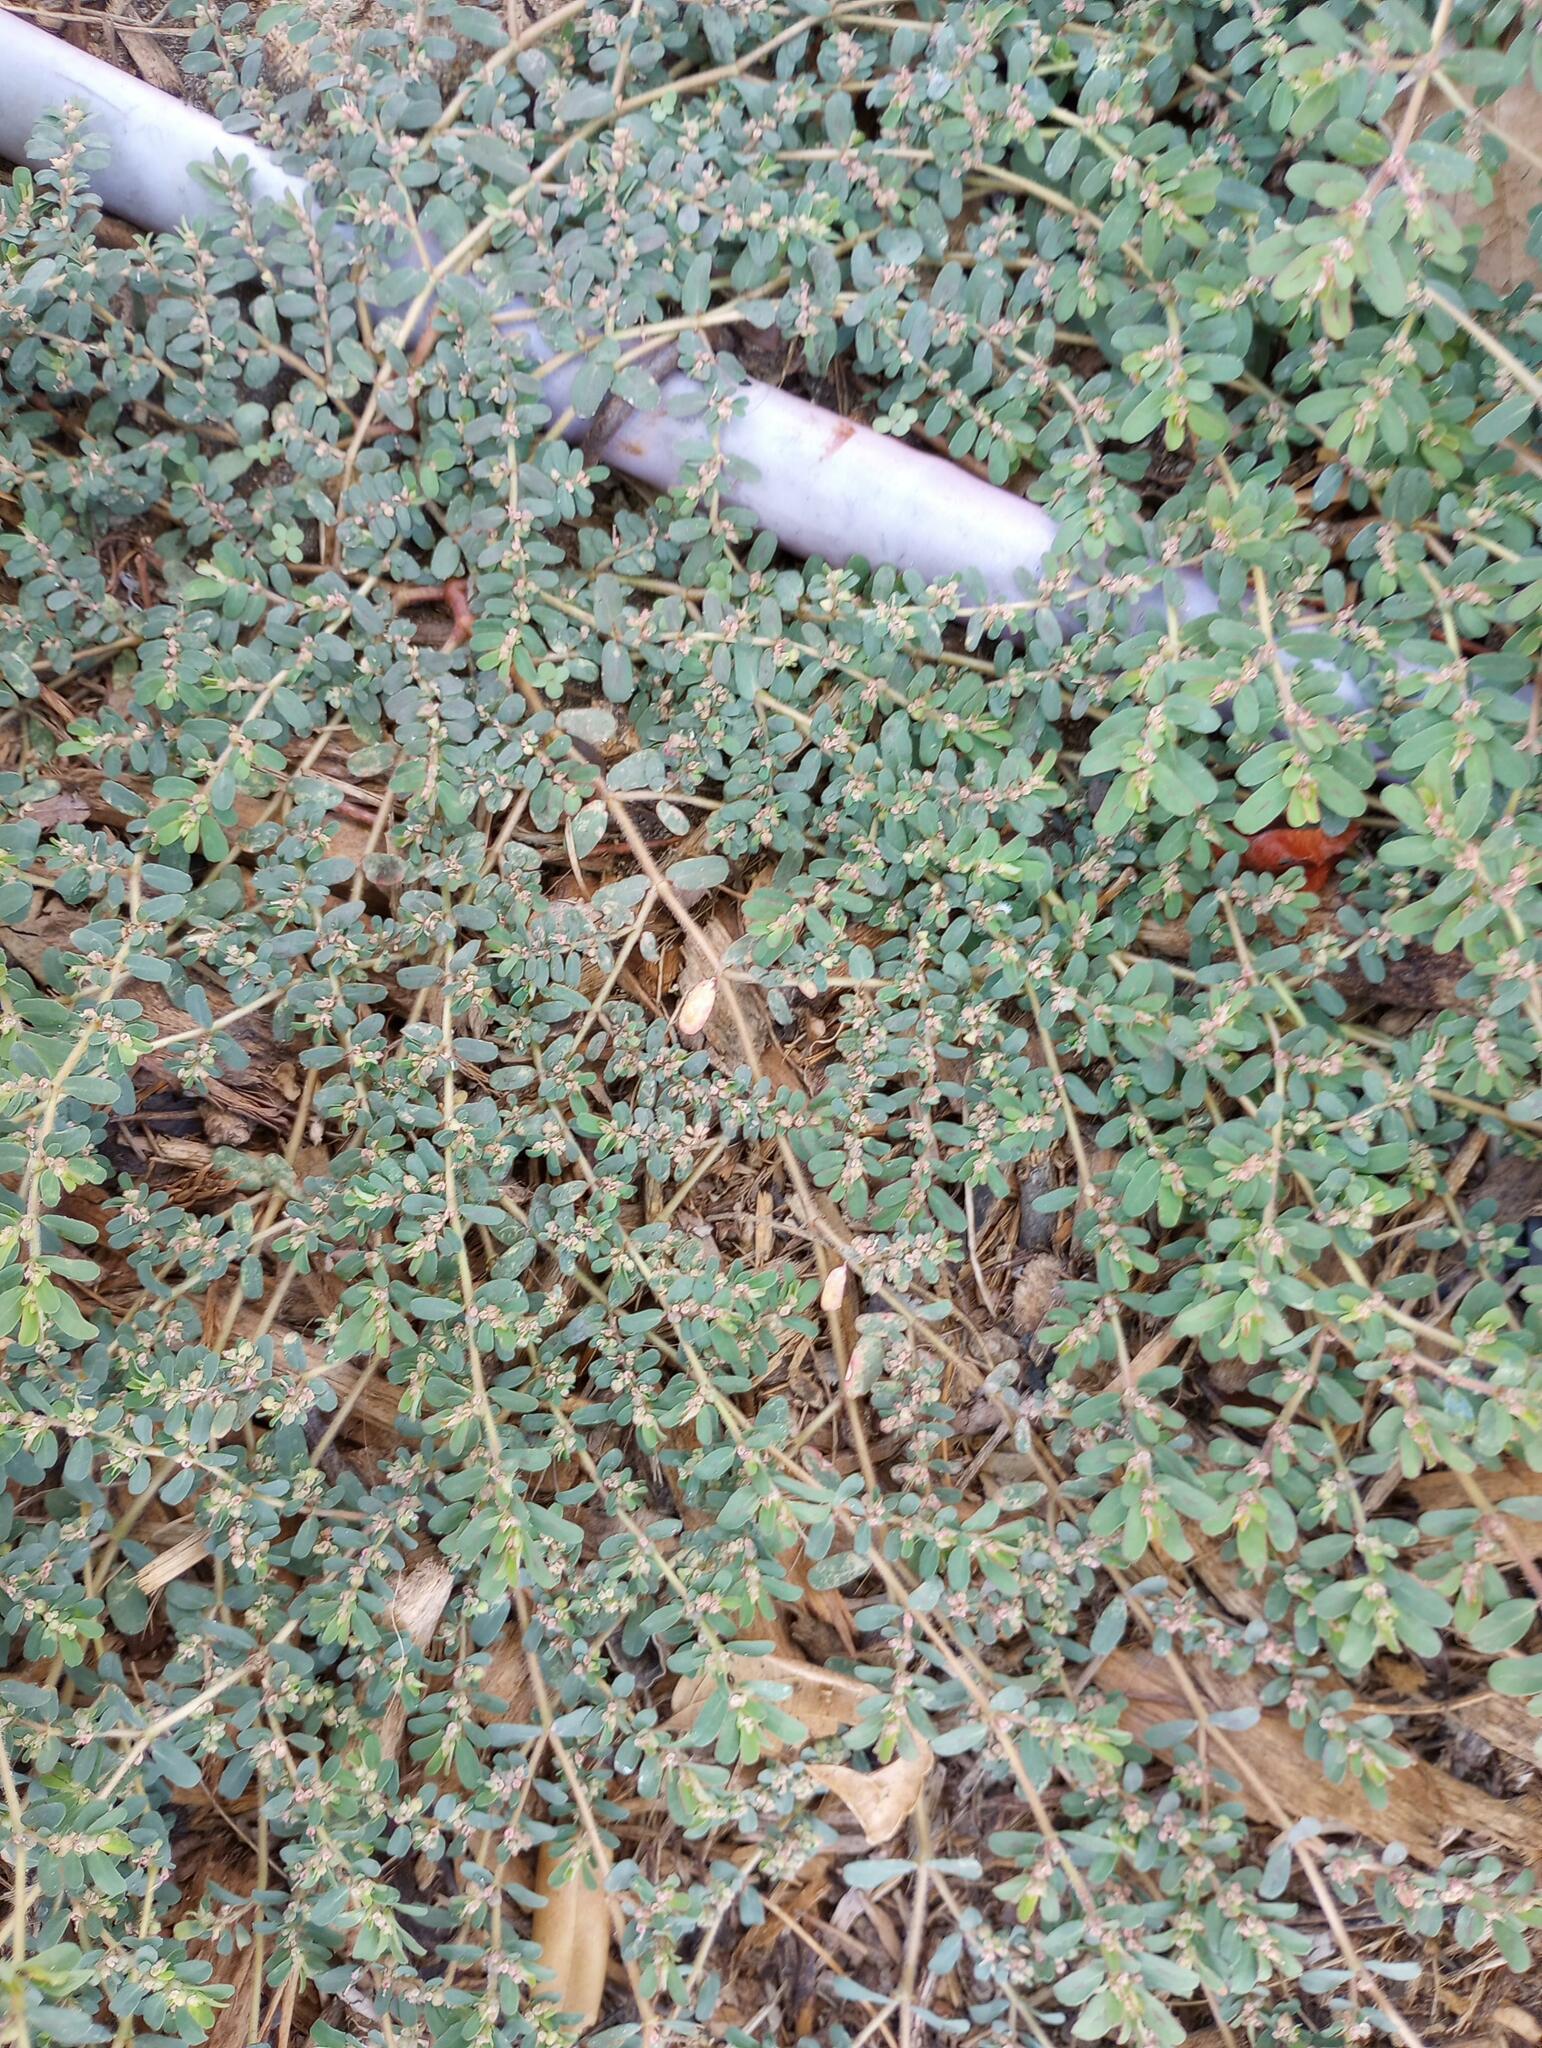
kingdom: Plantae
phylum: Tracheophyta
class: Magnoliopsida
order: Malpighiales
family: Euphorbiaceae
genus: Euphorbia
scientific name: Euphorbia maculata
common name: Spotted spurge
